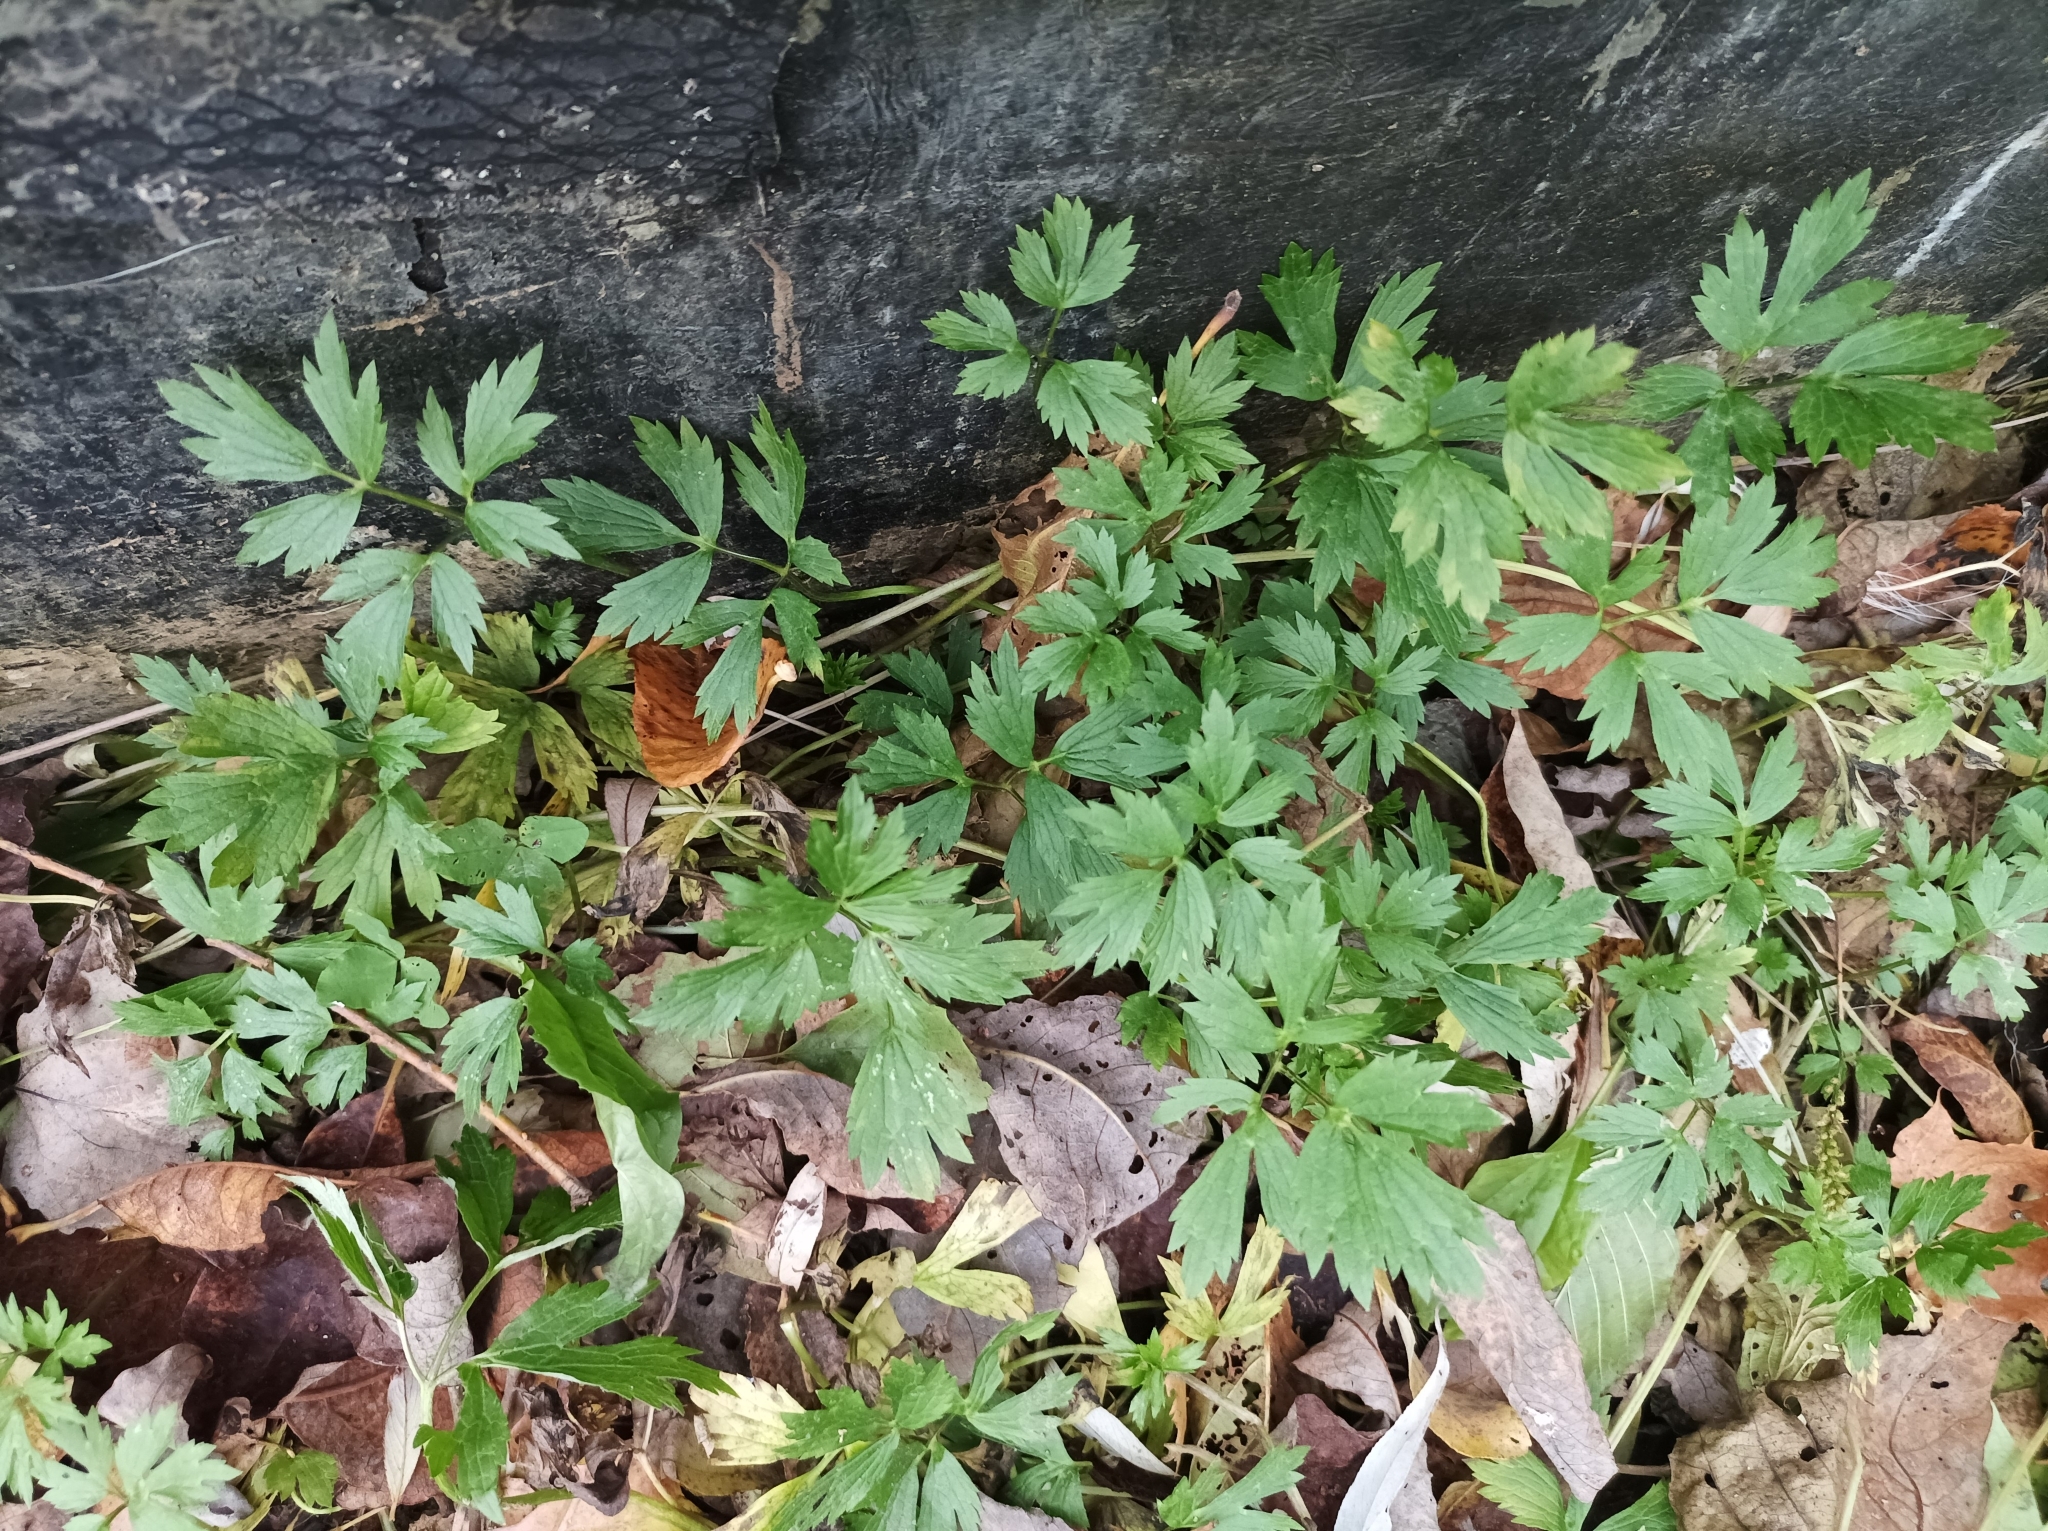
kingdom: Plantae
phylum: Tracheophyta
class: Magnoliopsida
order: Ranunculales
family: Ranunculaceae
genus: Ranunculus
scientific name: Ranunculus repens
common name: Creeping buttercup
